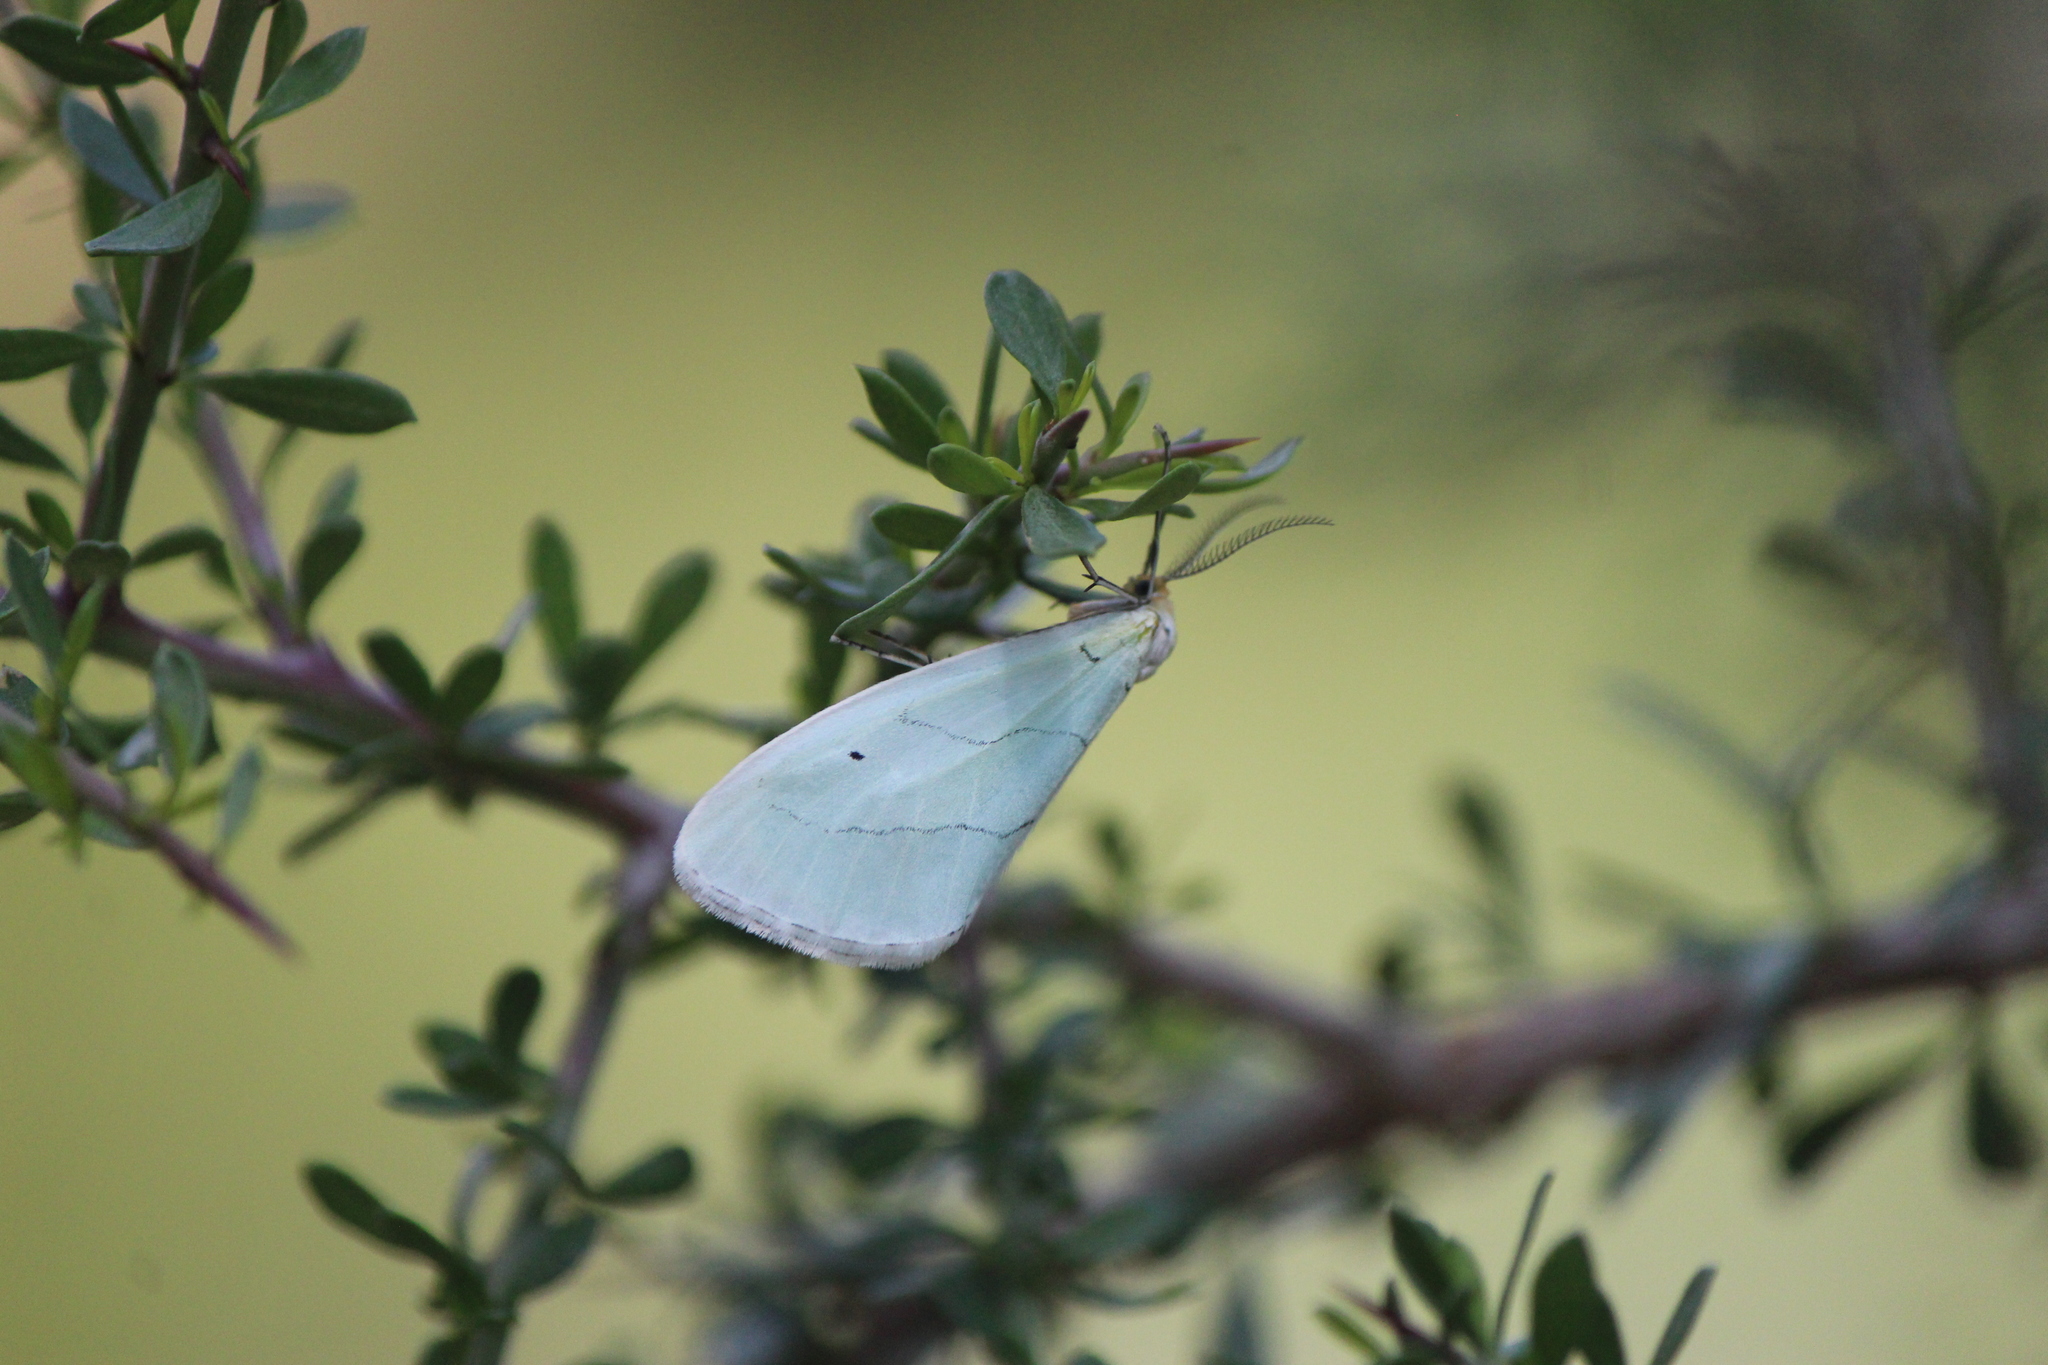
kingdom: Animalia
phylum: Arthropoda
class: Insecta
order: Lepidoptera
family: Doidae
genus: Leuculodes
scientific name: Leuculodes lacteolaria
